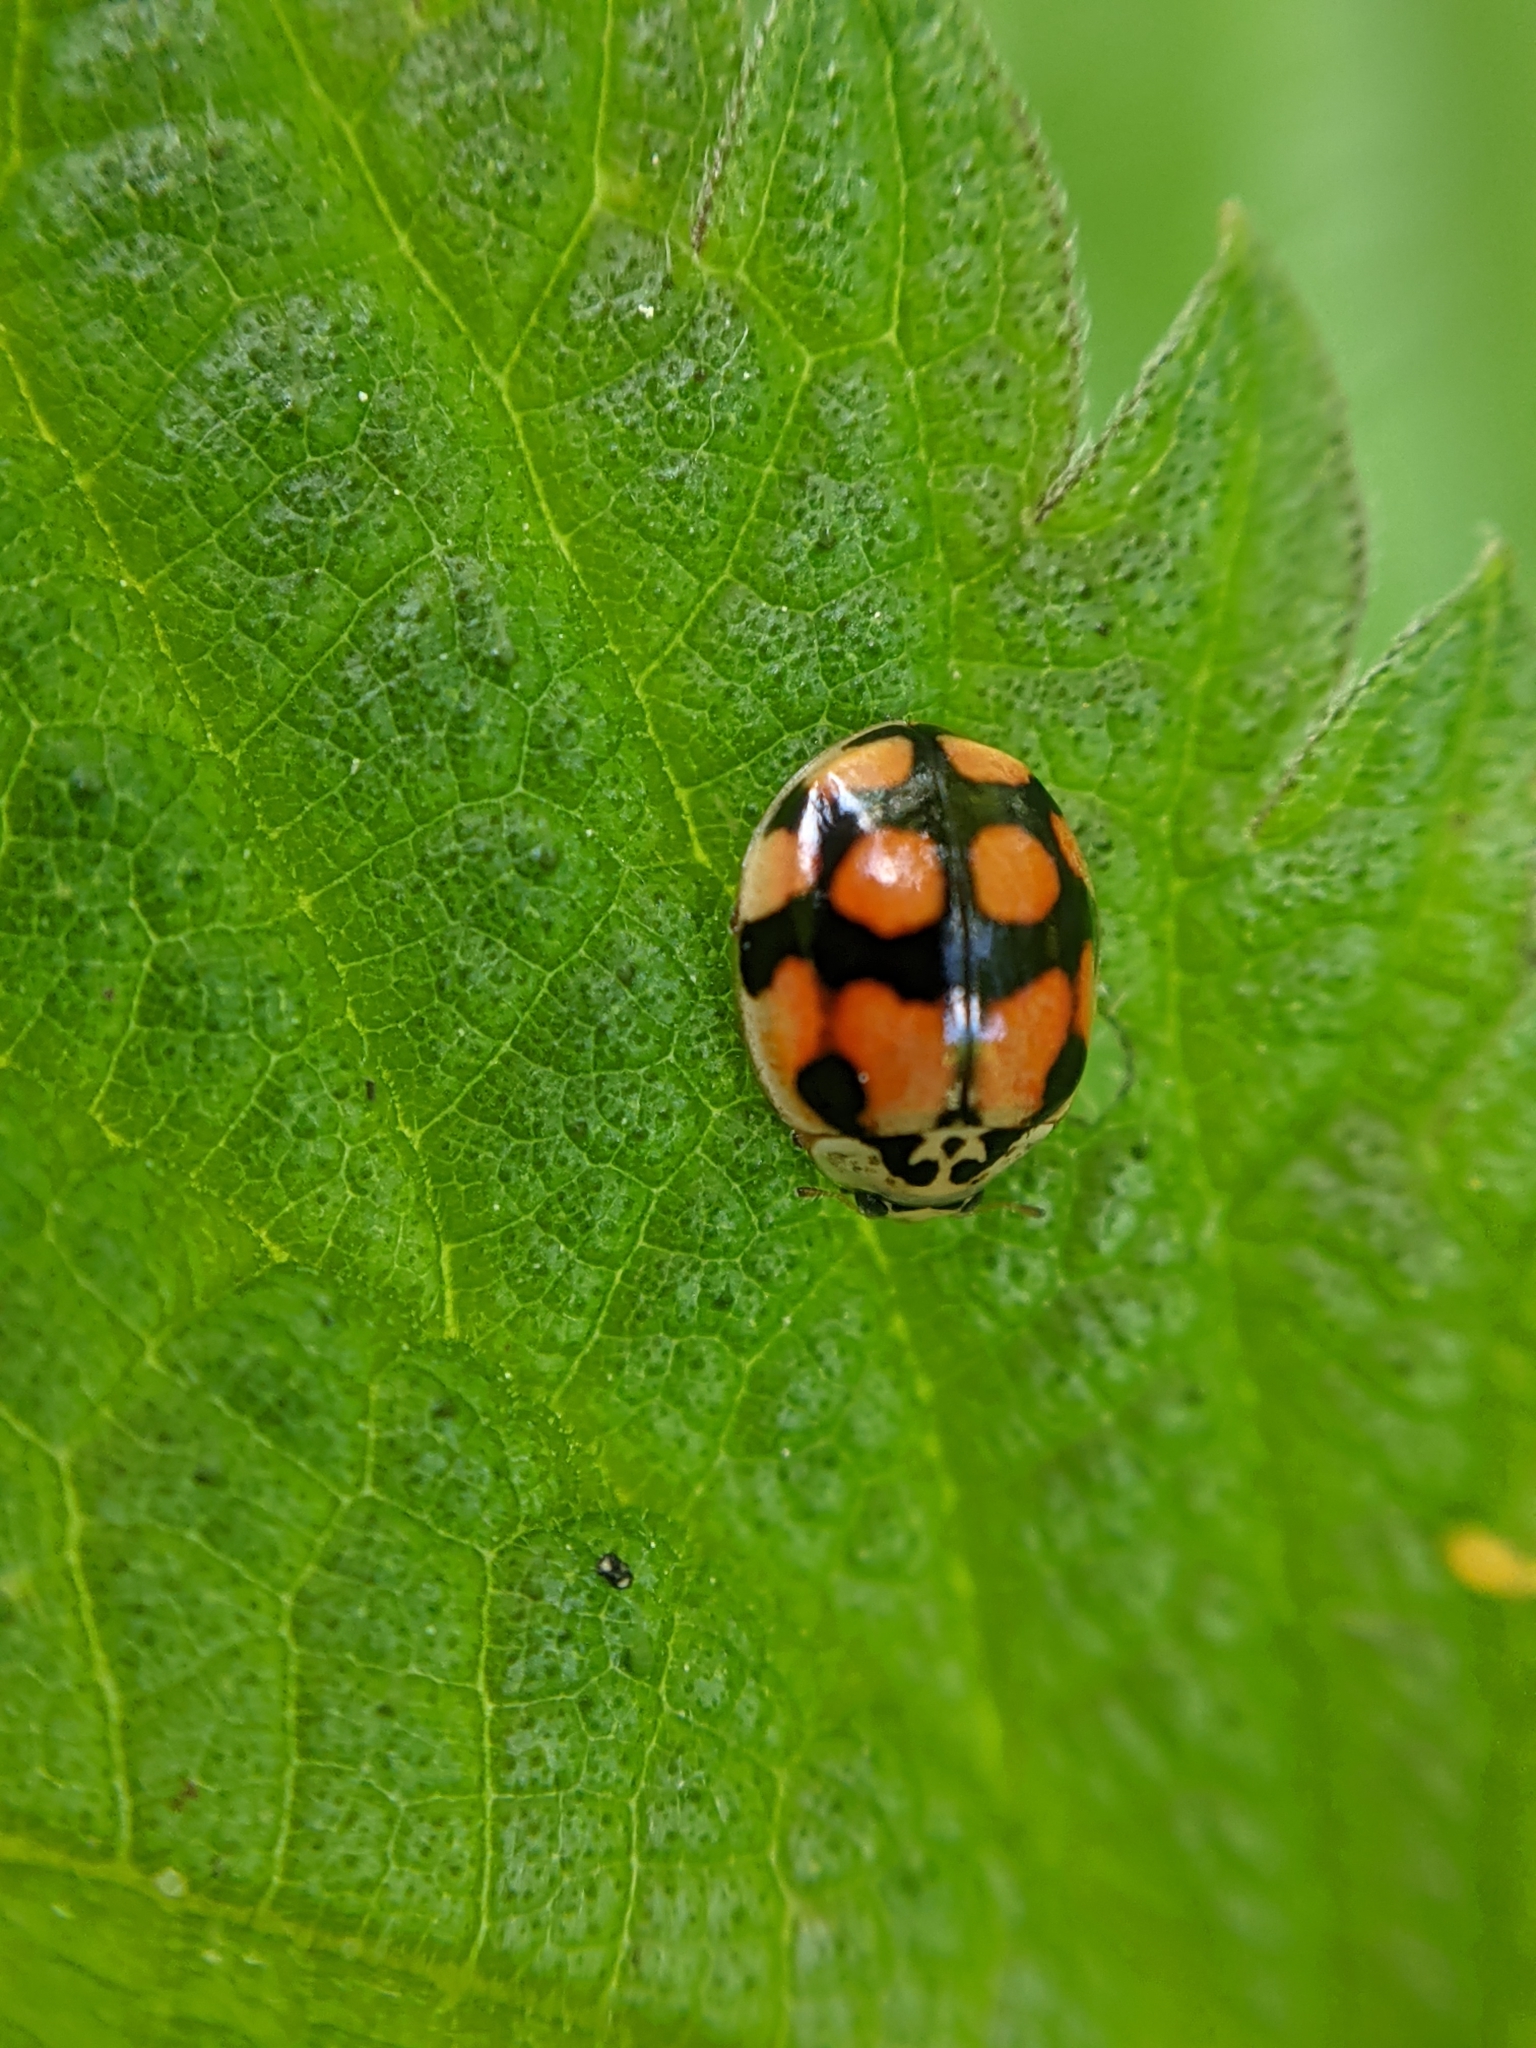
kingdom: Animalia
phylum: Arthropoda
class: Insecta
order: Coleoptera
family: Coccinellidae
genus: Adalia
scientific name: Adalia decempunctata
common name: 10-spot ladybird
